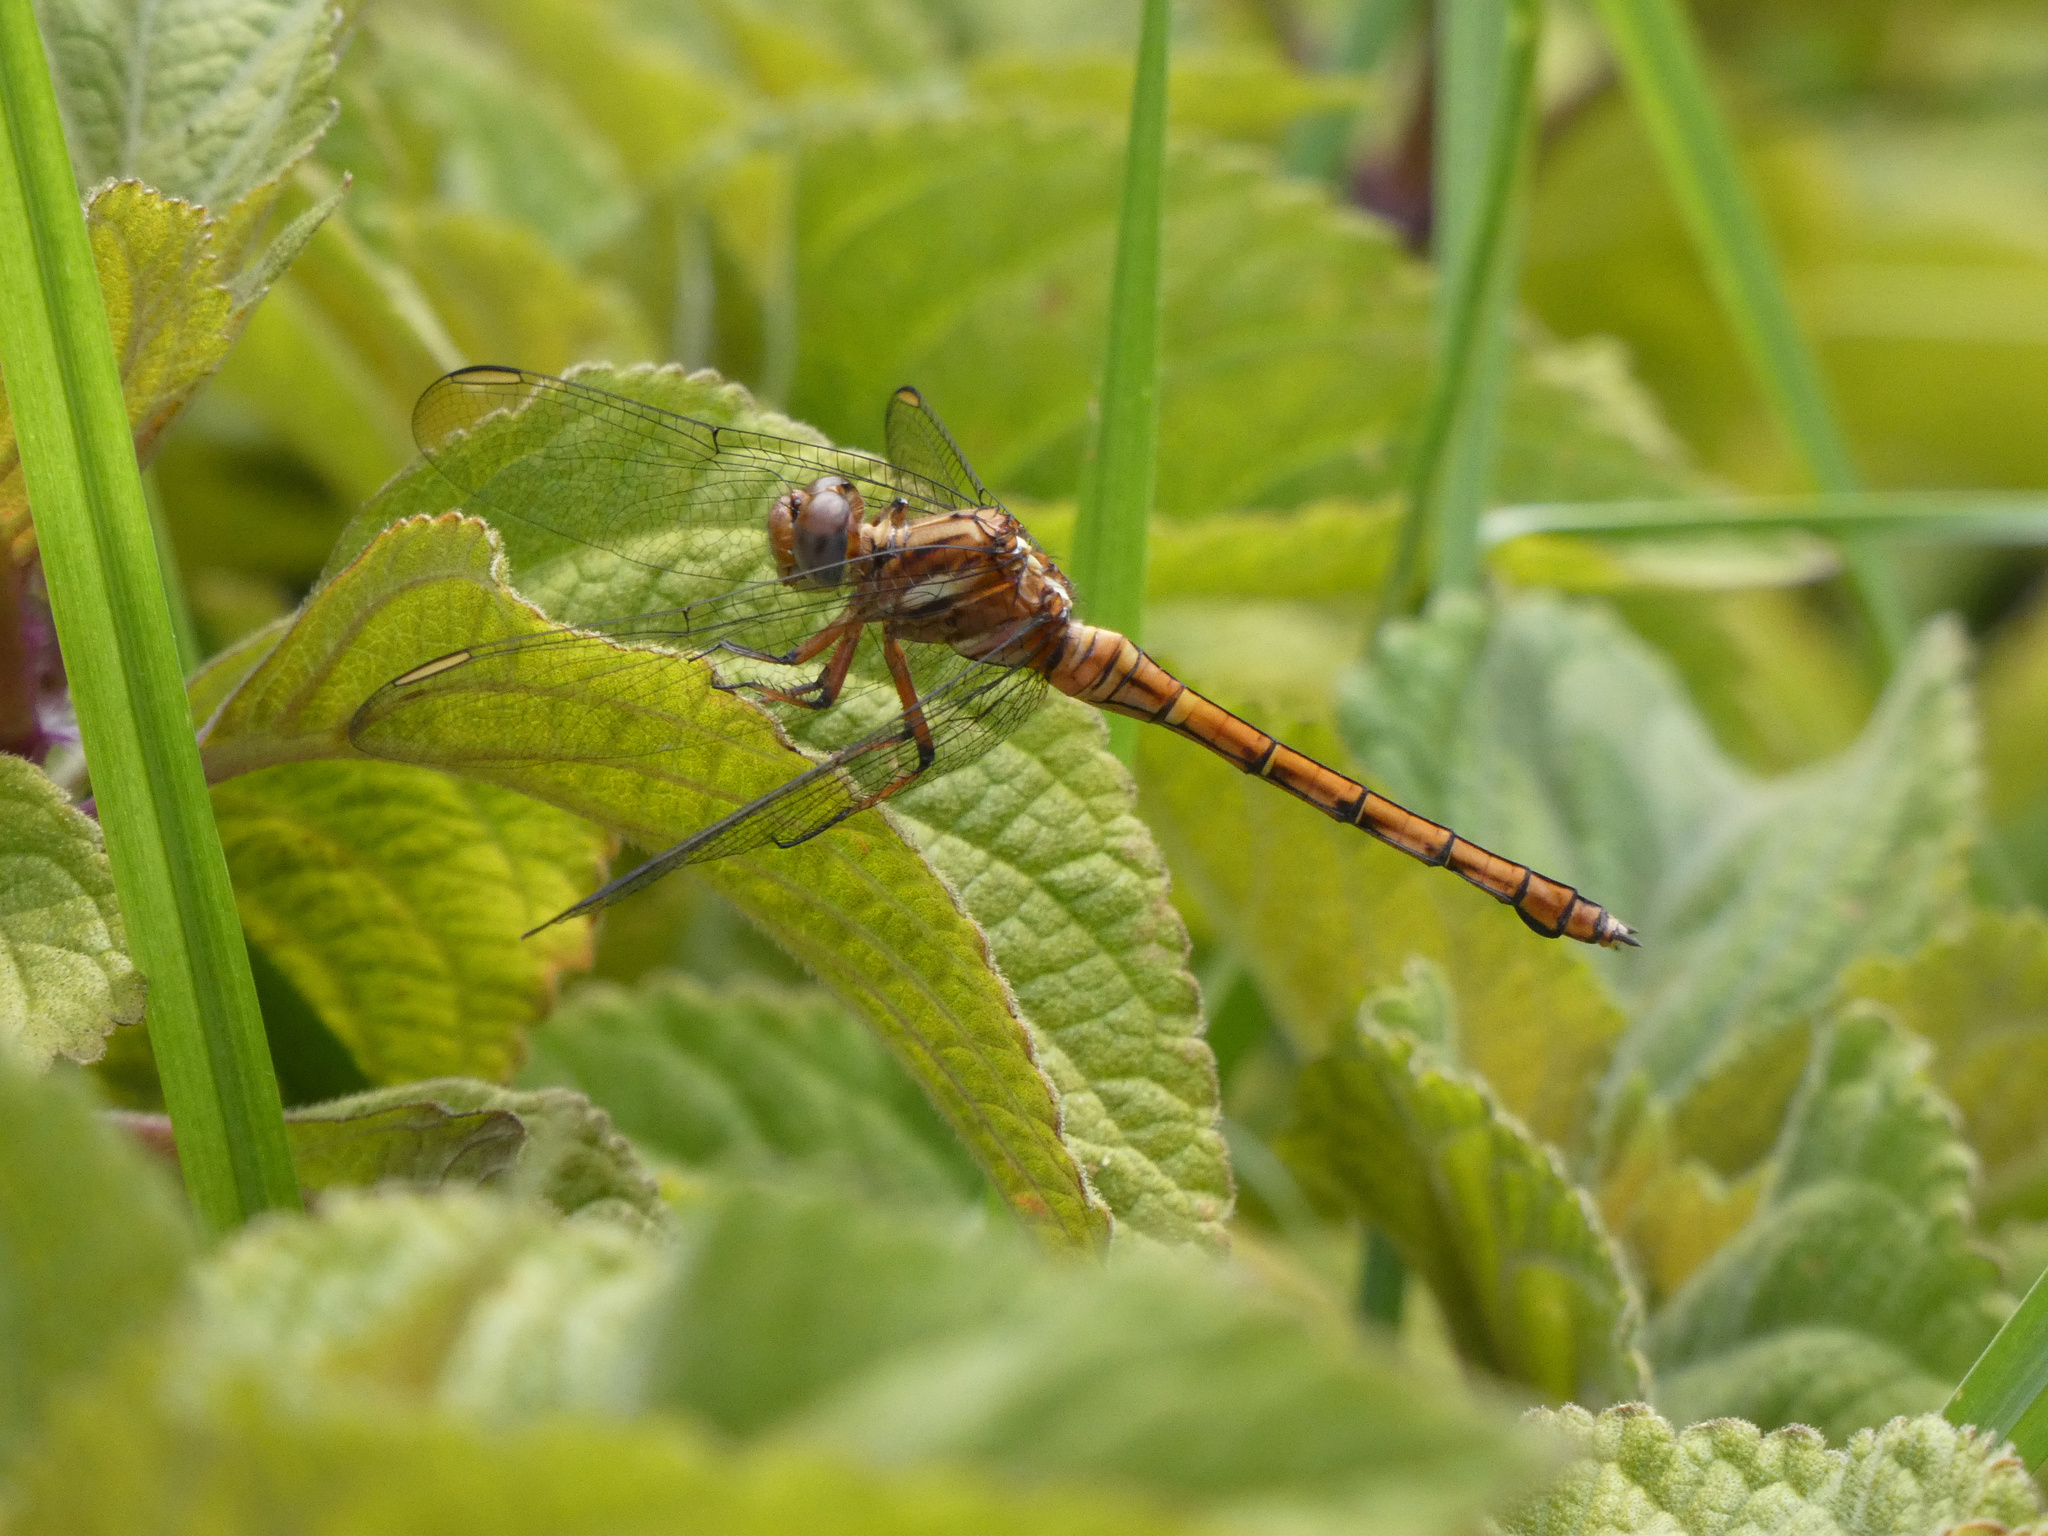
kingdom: Animalia
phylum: Arthropoda
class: Insecta
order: Odonata
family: Libellulidae
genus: Orthetrum
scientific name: Orthetrum julia
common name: Julia skimmer
